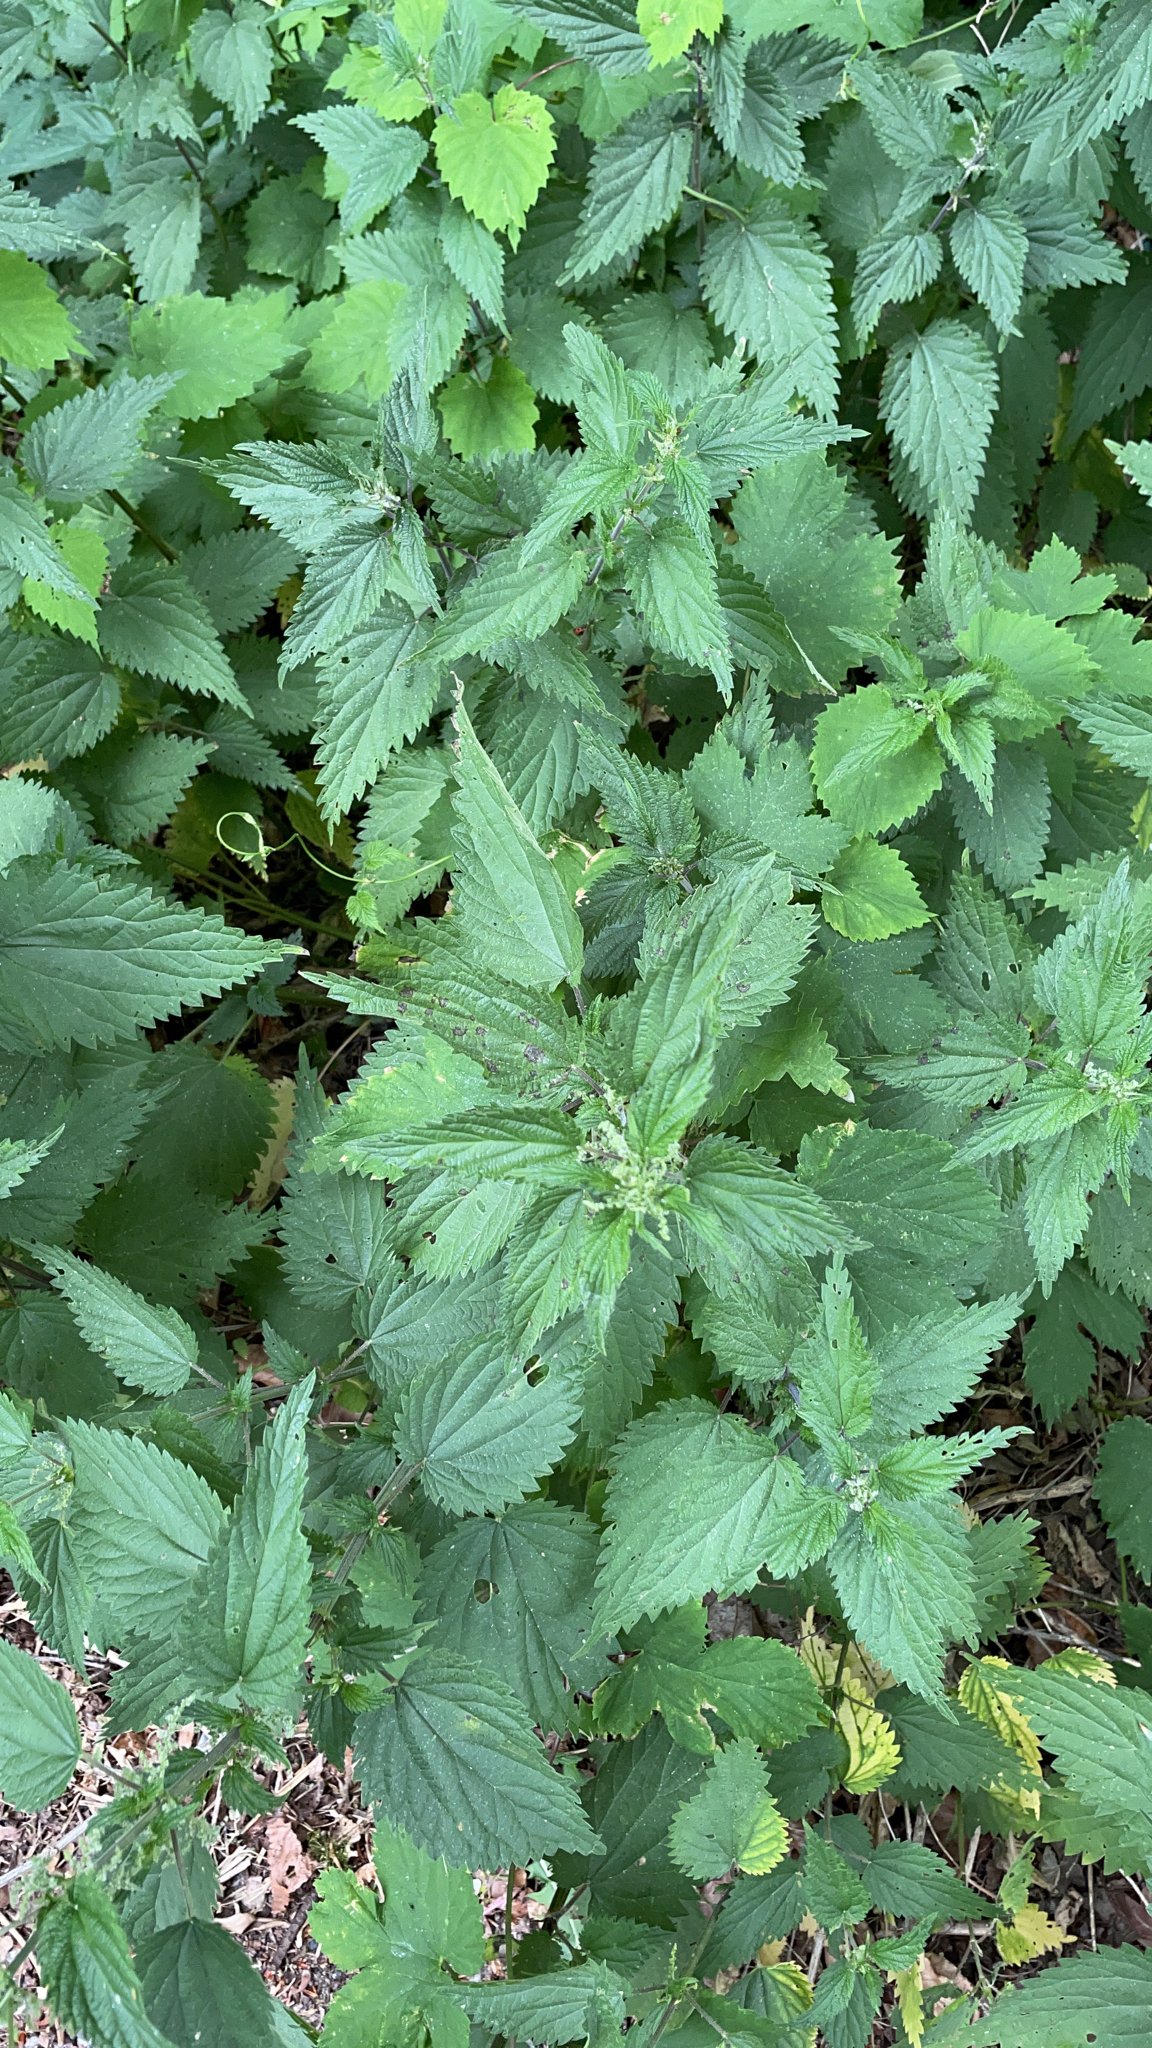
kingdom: Plantae
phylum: Tracheophyta
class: Magnoliopsida
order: Rosales
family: Urticaceae
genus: Urtica
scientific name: Urtica dioica
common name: Common nettle
